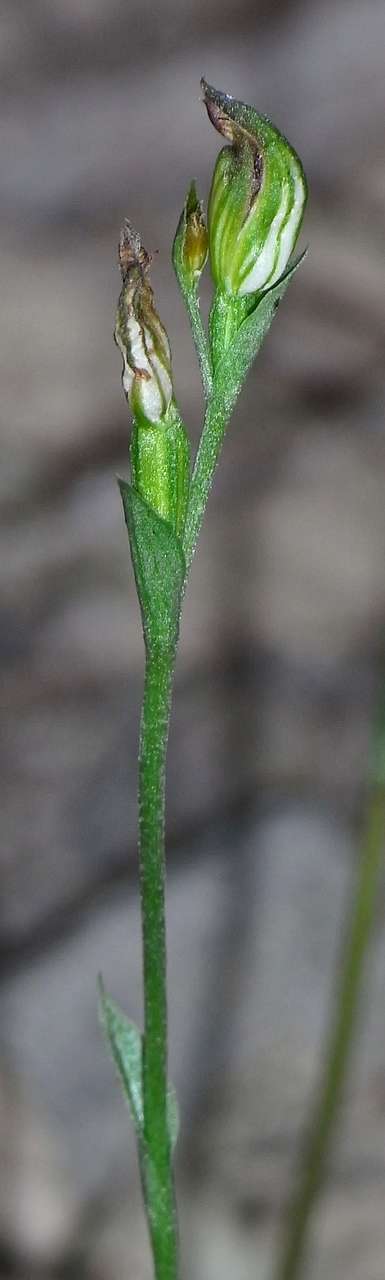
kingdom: Plantae
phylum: Tracheophyta
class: Liliopsida
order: Asparagales
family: Orchidaceae
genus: Pterostylis
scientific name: Pterostylis parviflora
